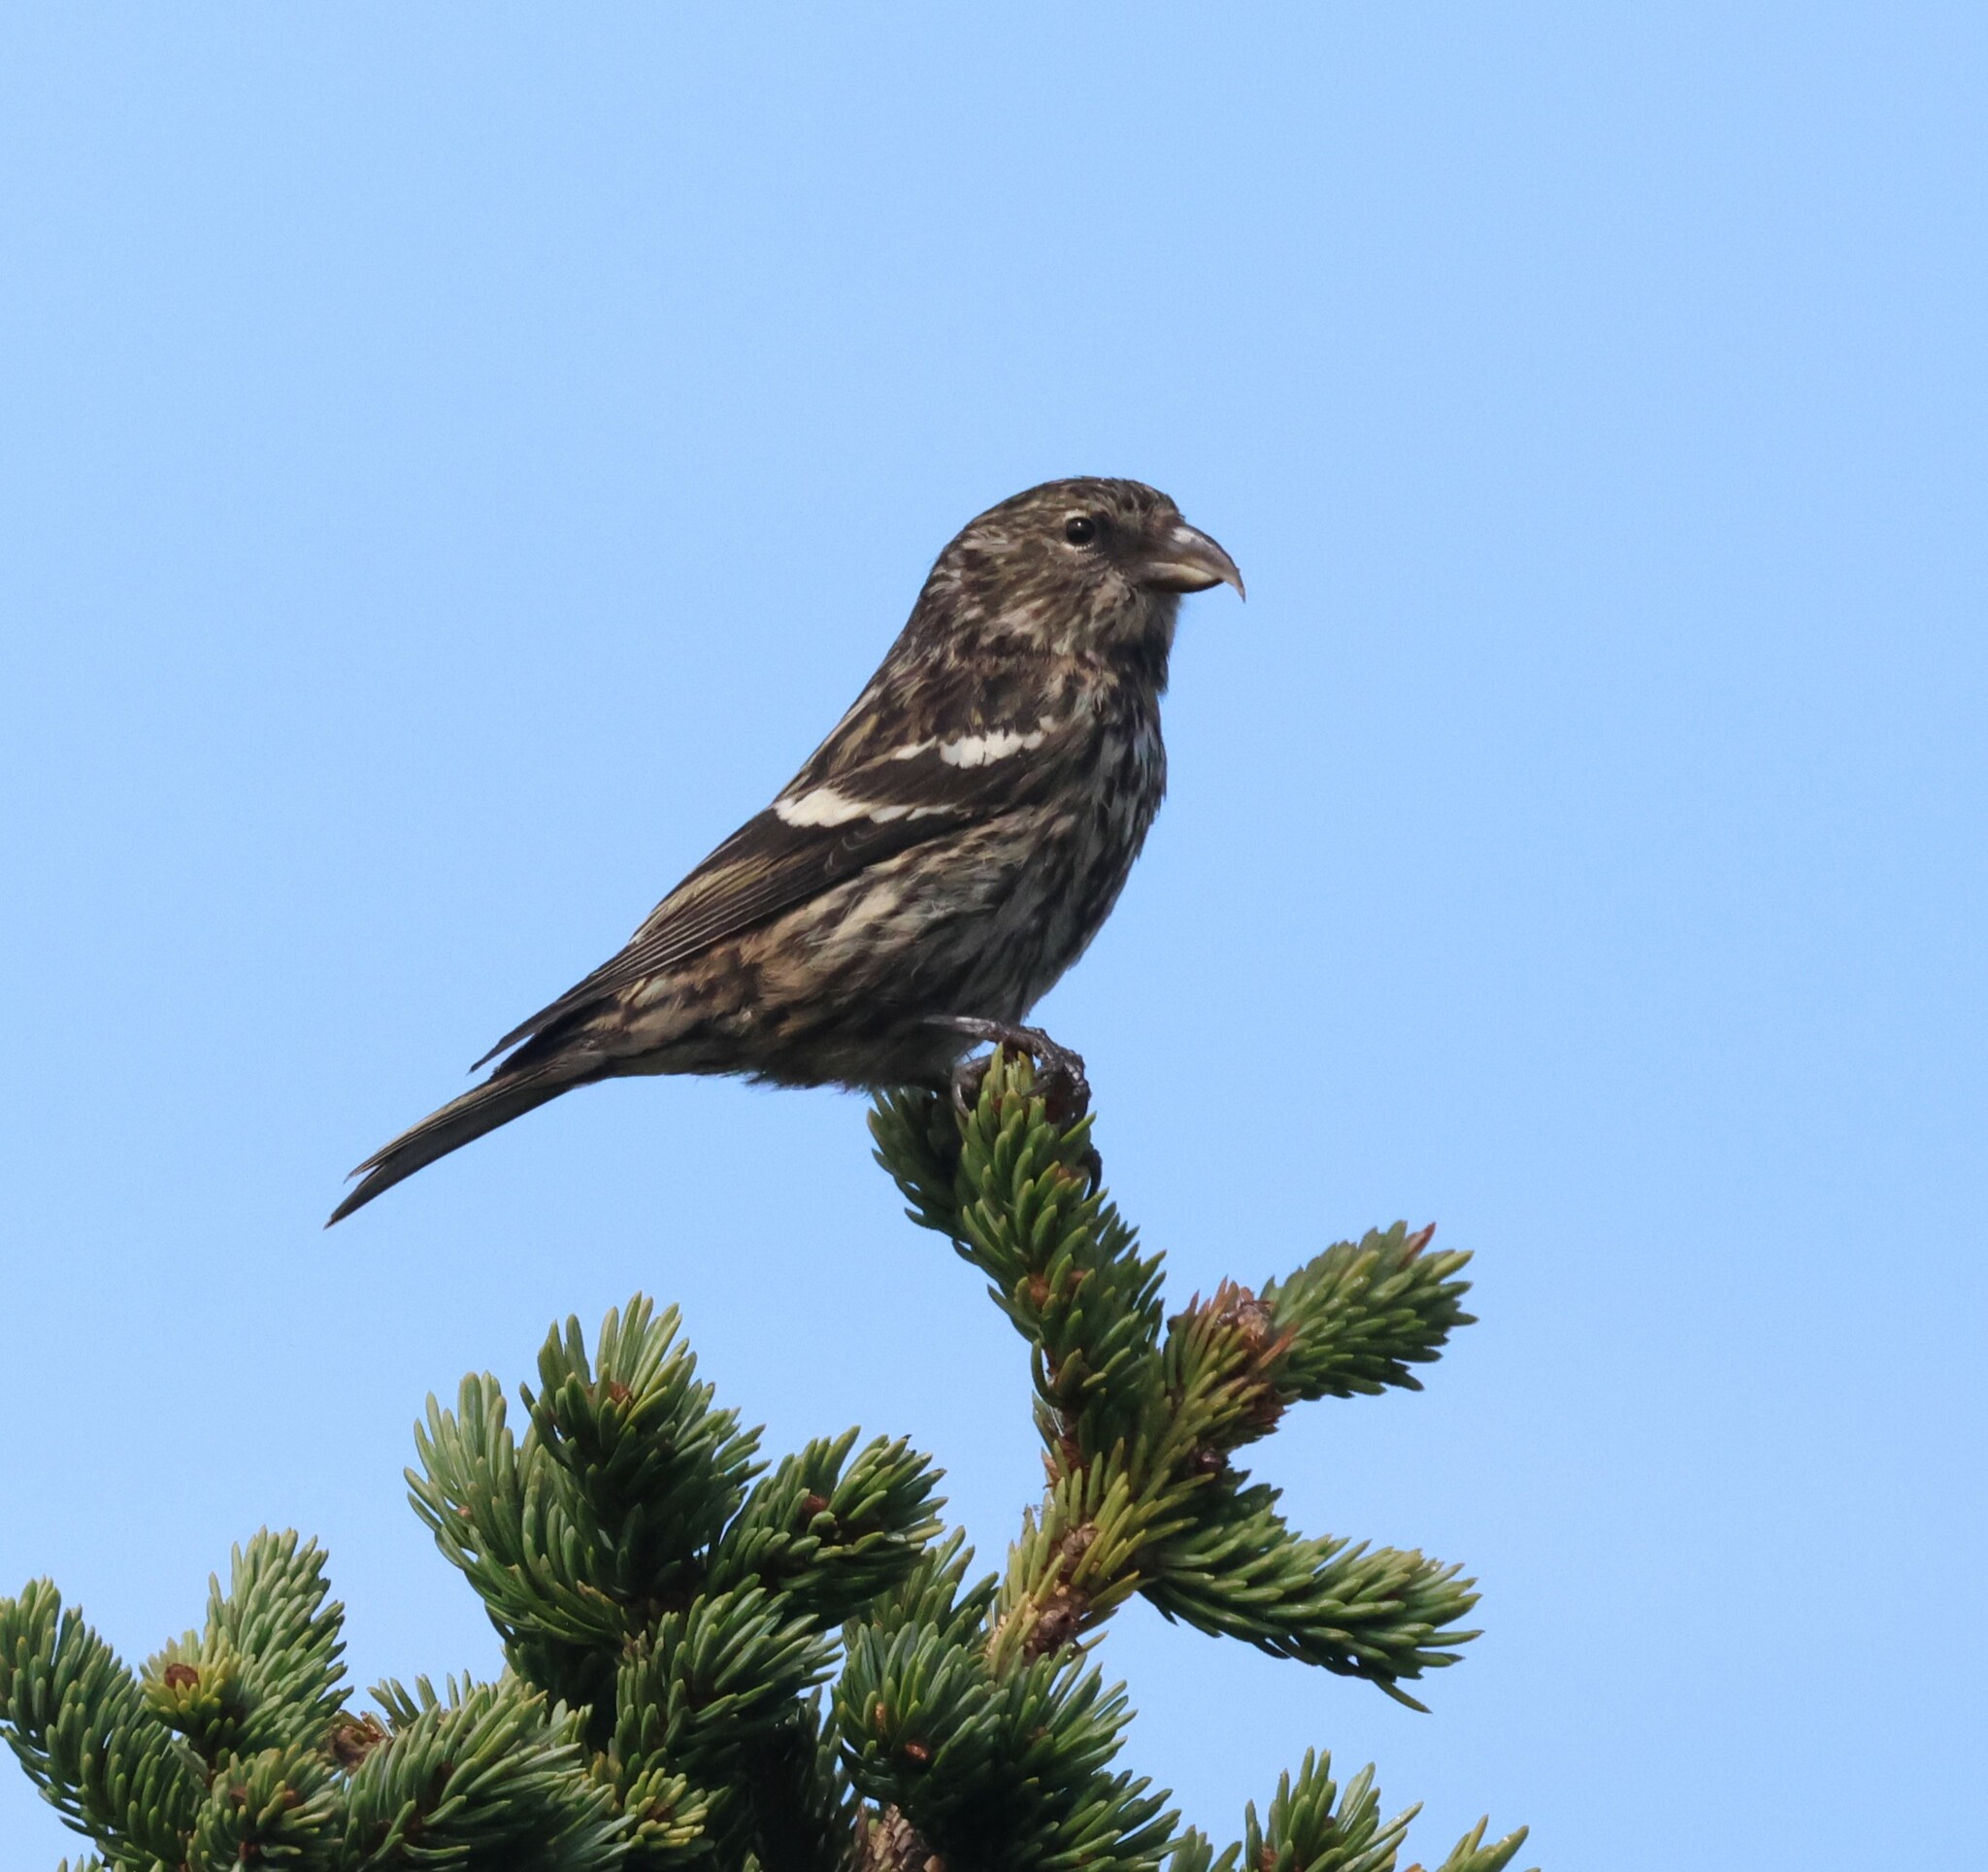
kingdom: Animalia
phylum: Chordata
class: Aves
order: Passeriformes
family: Fringillidae
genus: Loxia
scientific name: Loxia leucoptera
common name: Two-barred crossbill
